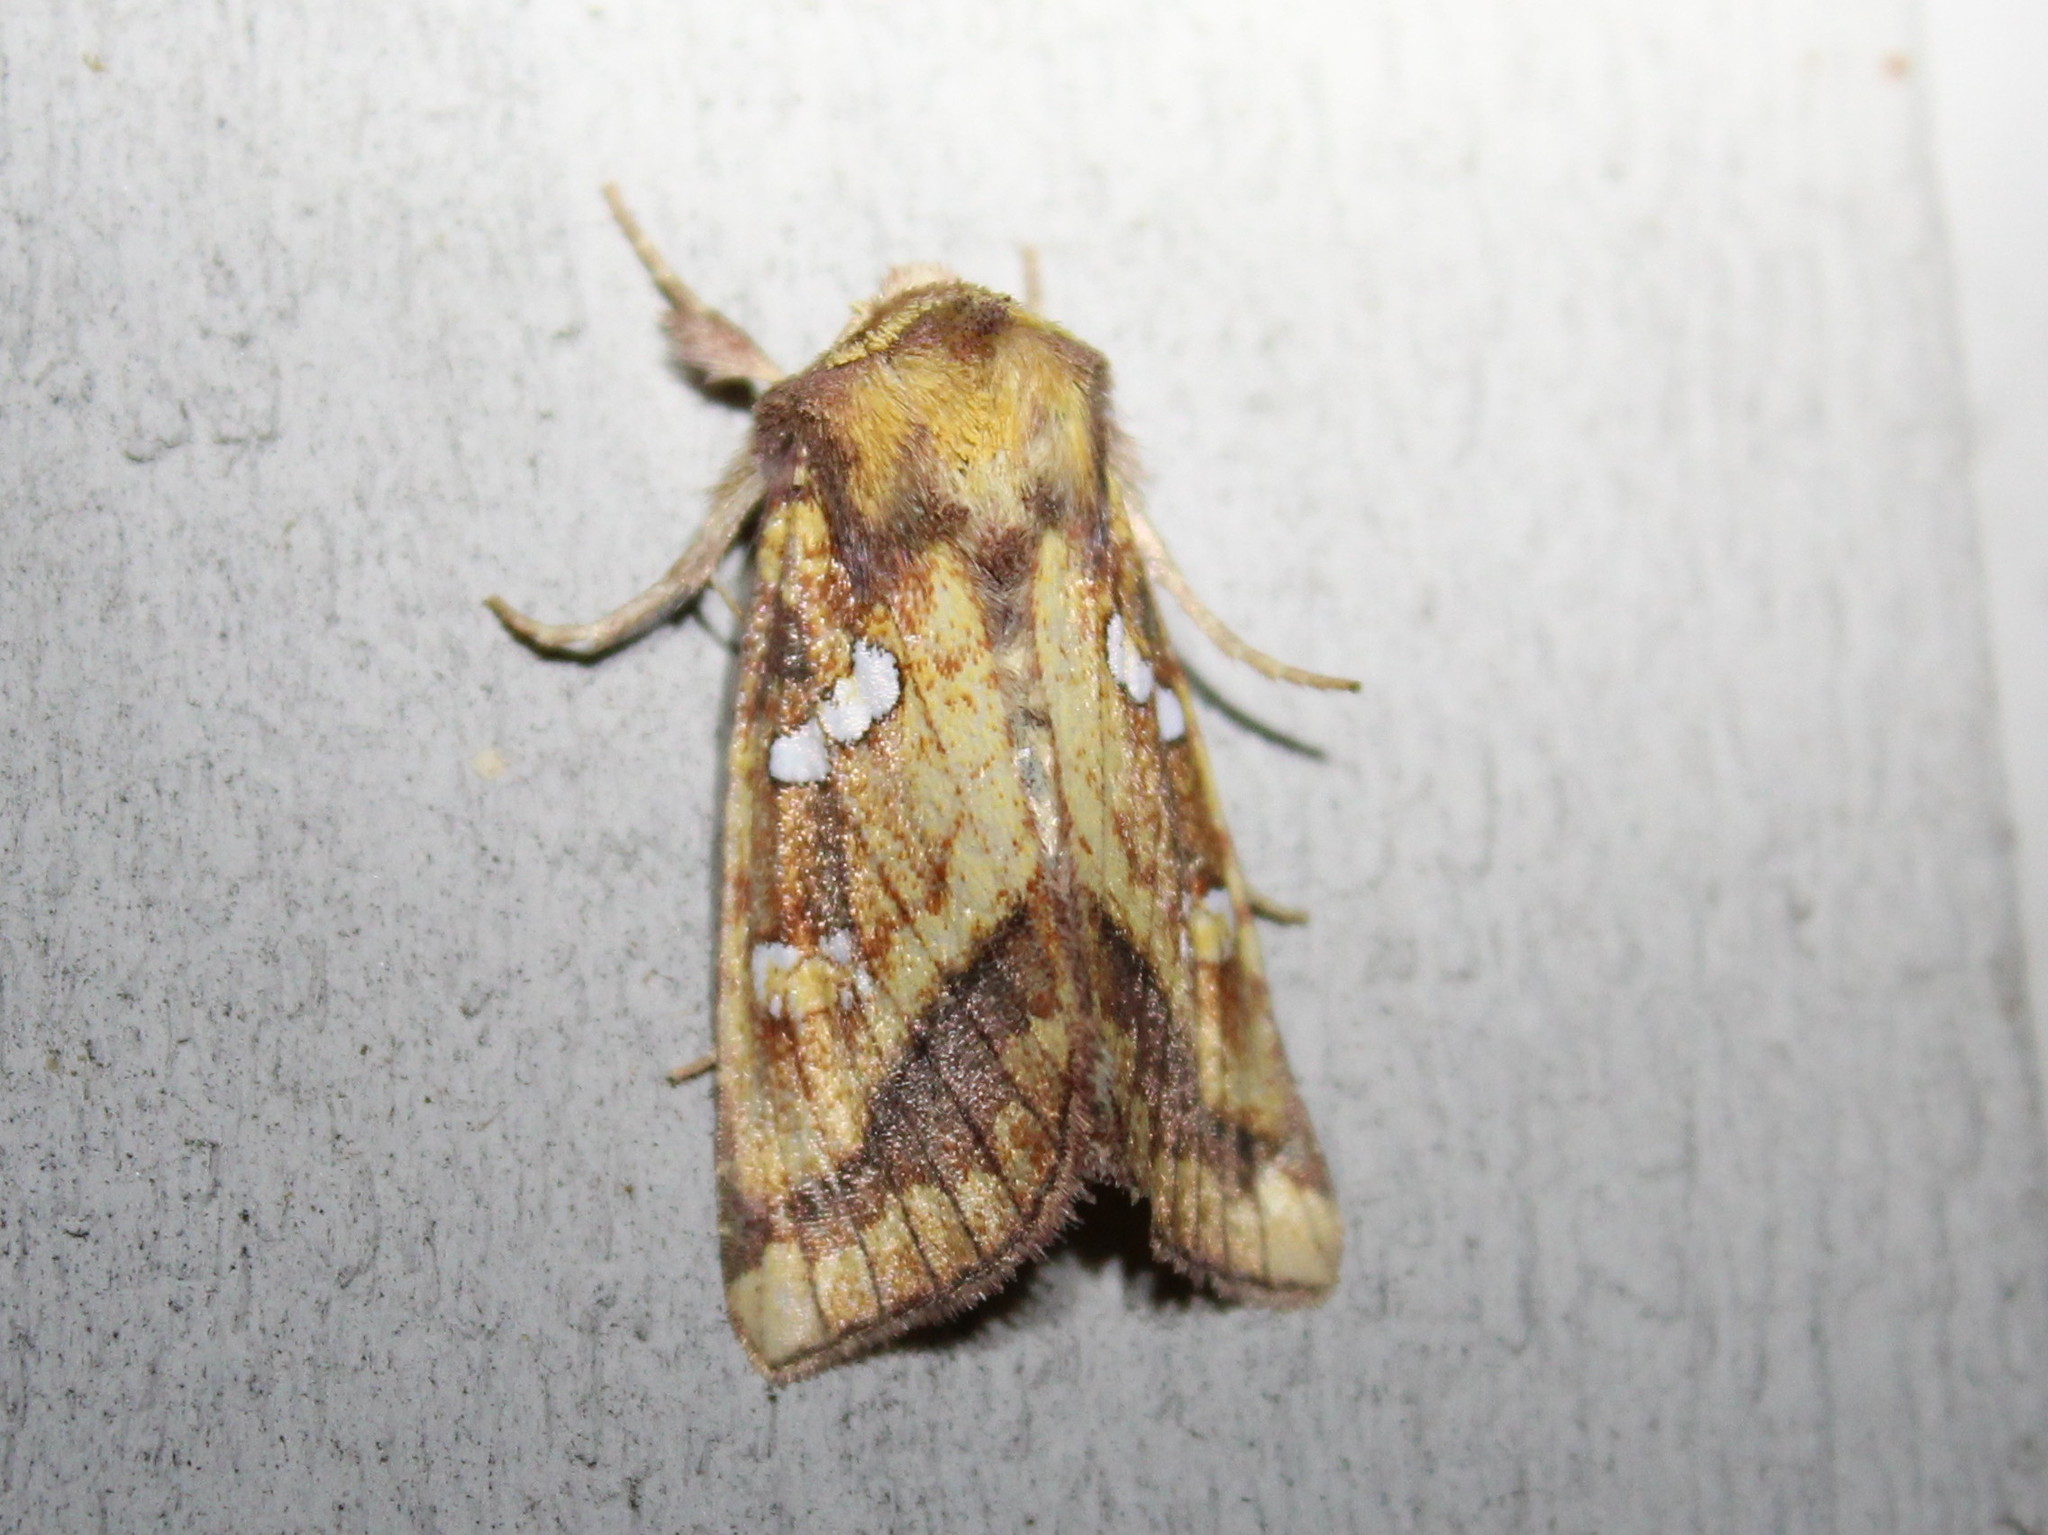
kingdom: Animalia
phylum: Arthropoda
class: Insecta
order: Lepidoptera
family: Noctuidae
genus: Papaipema
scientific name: Papaipema pterisii
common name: Bracken borer moth
